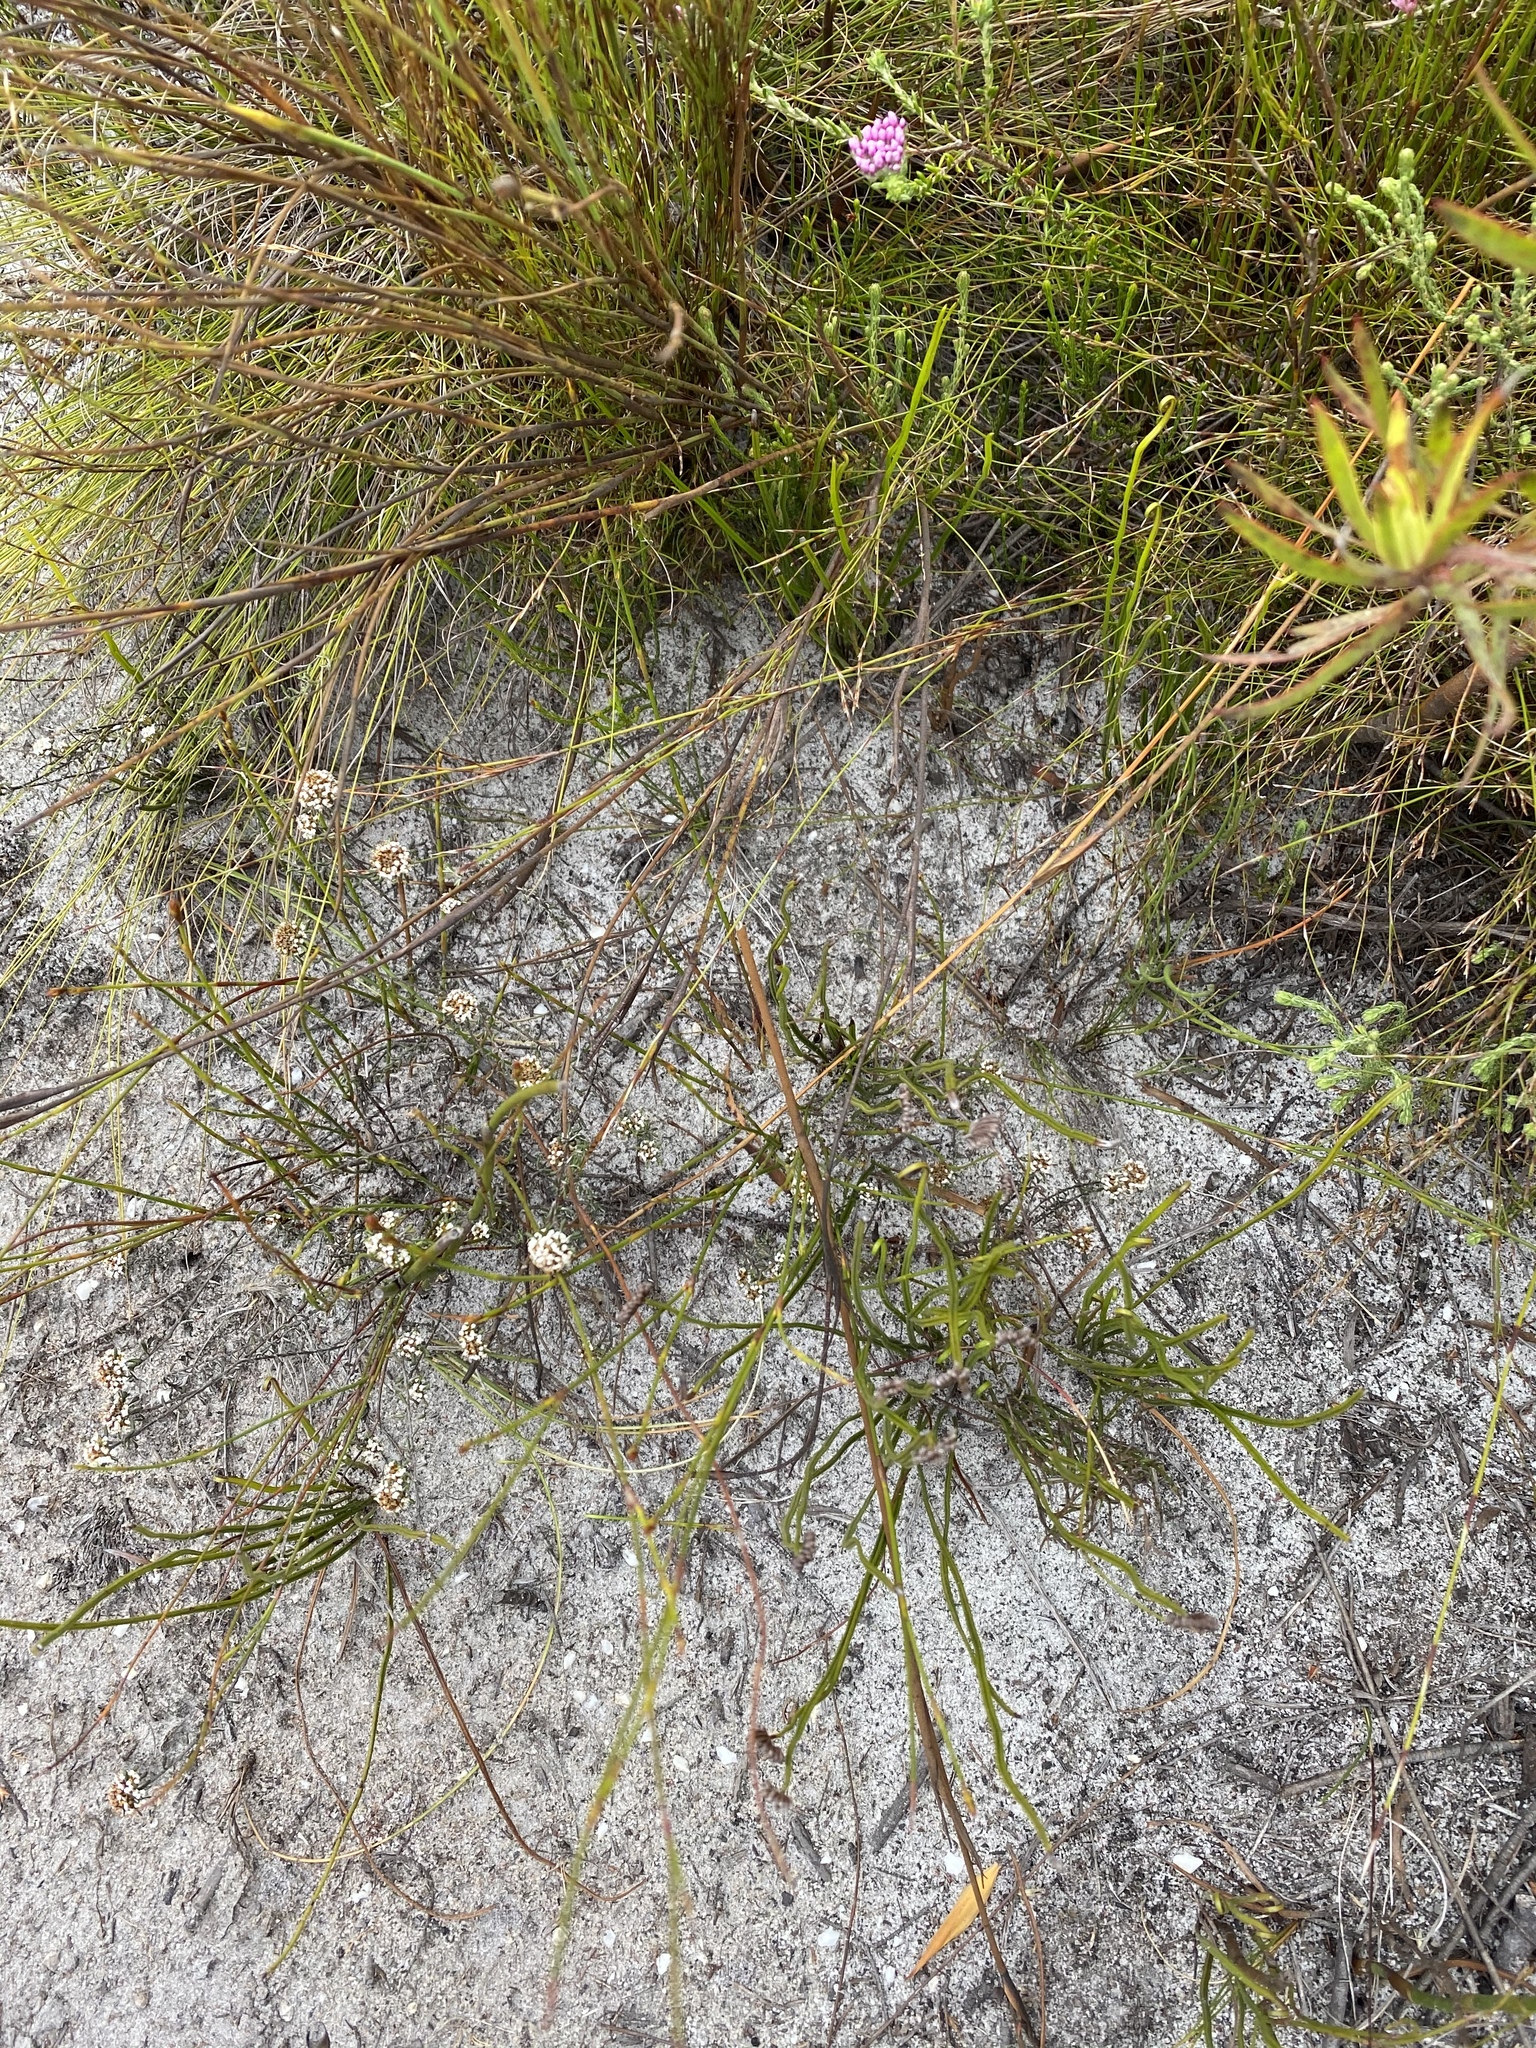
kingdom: Plantae
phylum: Tracheophyta
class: Magnoliopsida
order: Asterales
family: Asteraceae
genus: Disparago
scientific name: Disparago laxifolia
